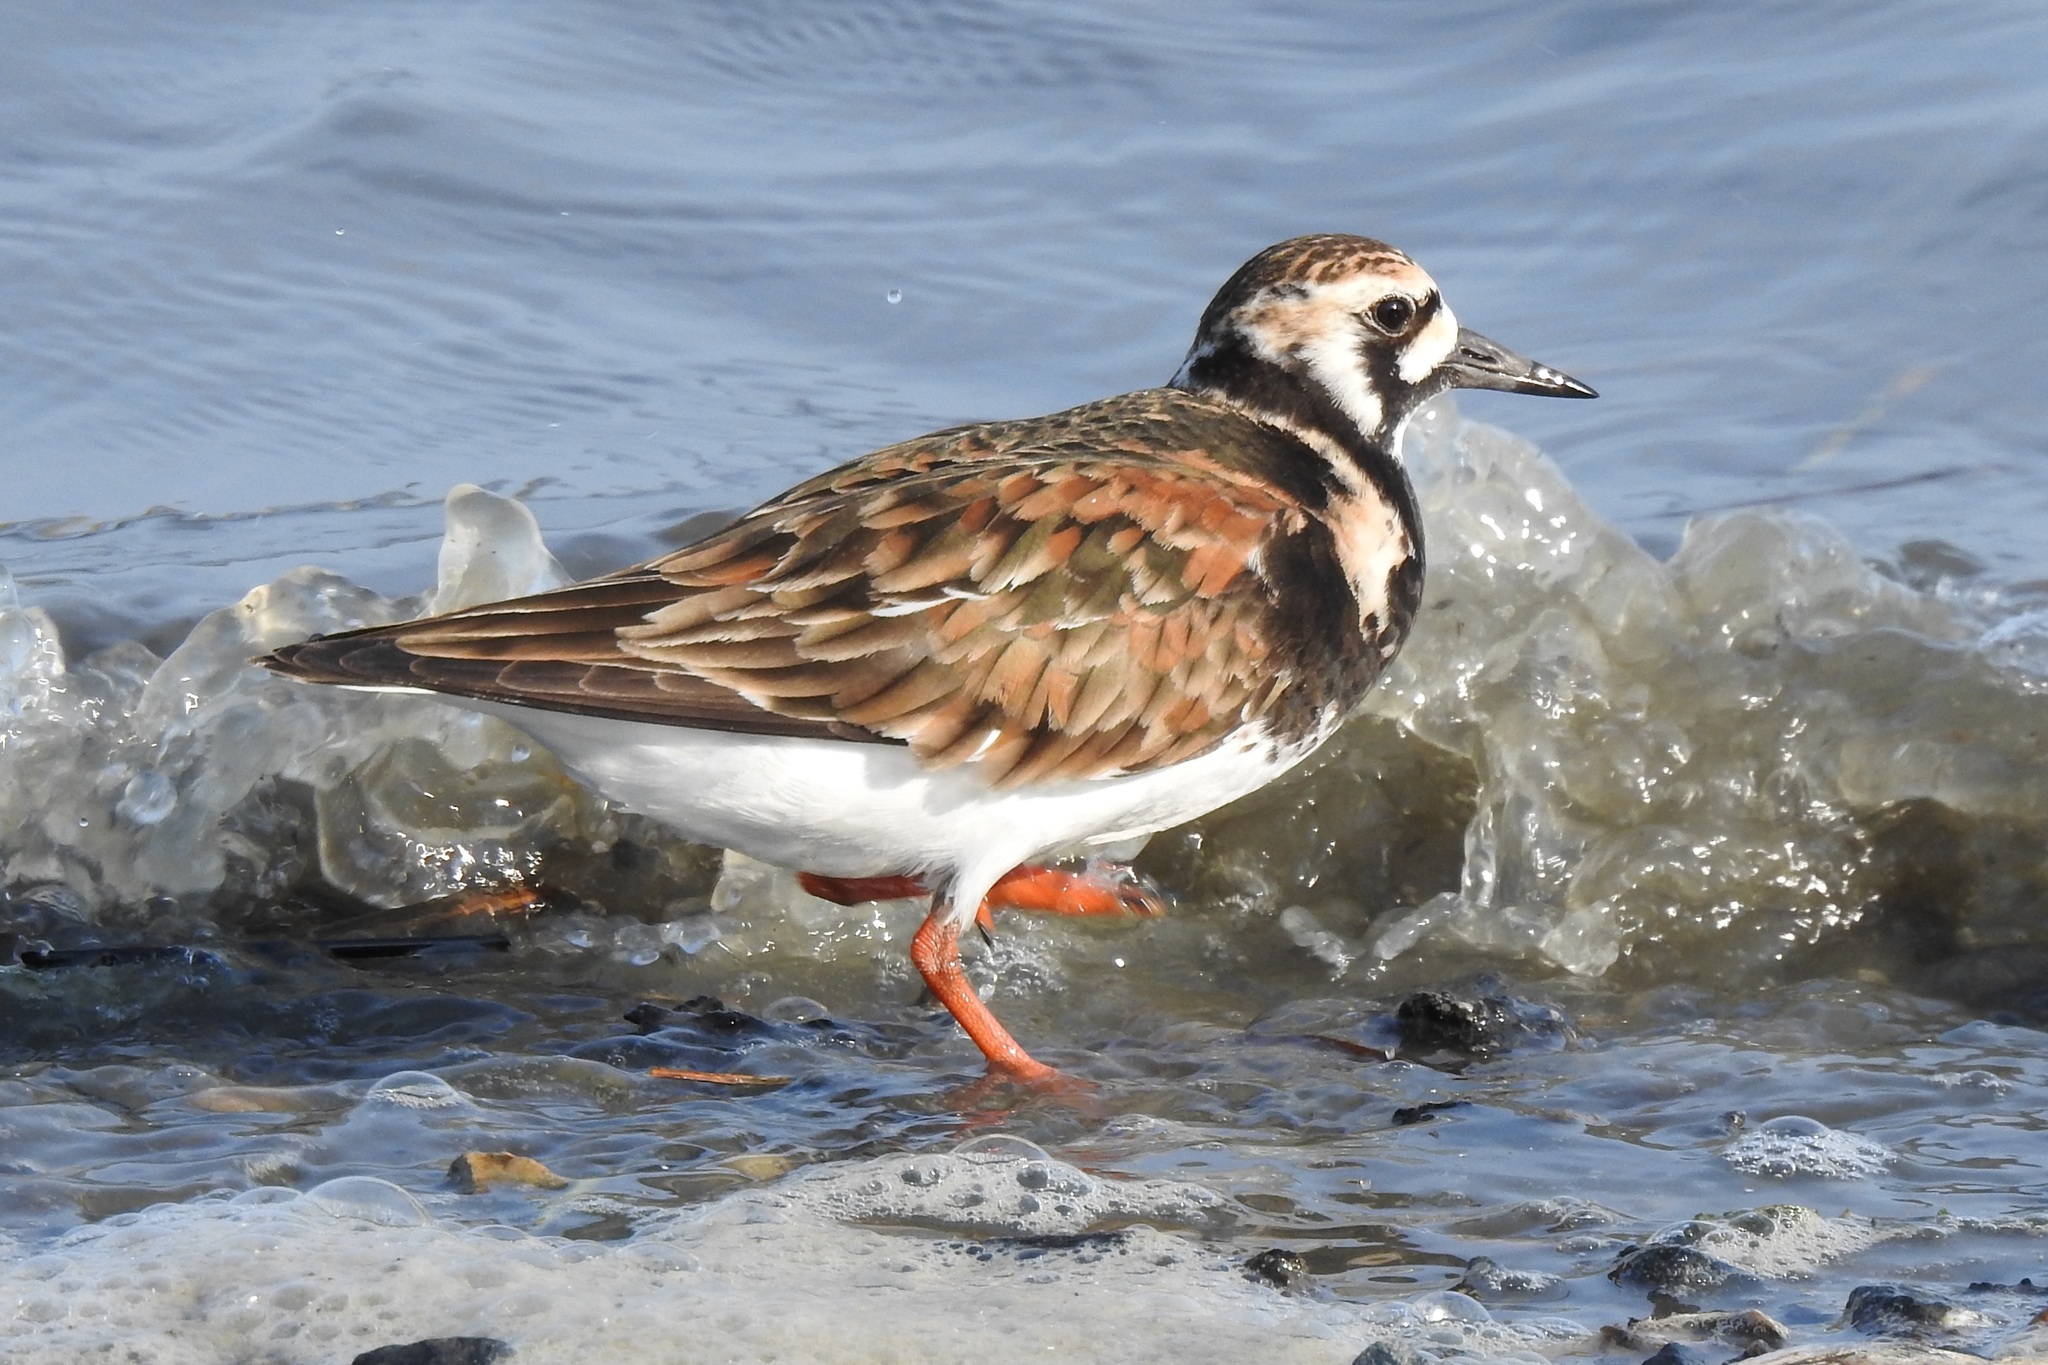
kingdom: Animalia
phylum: Chordata
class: Aves
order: Charadriiformes
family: Scolopacidae
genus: Arenaria
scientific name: Arenaria interpres
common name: Ruddy turnstone
